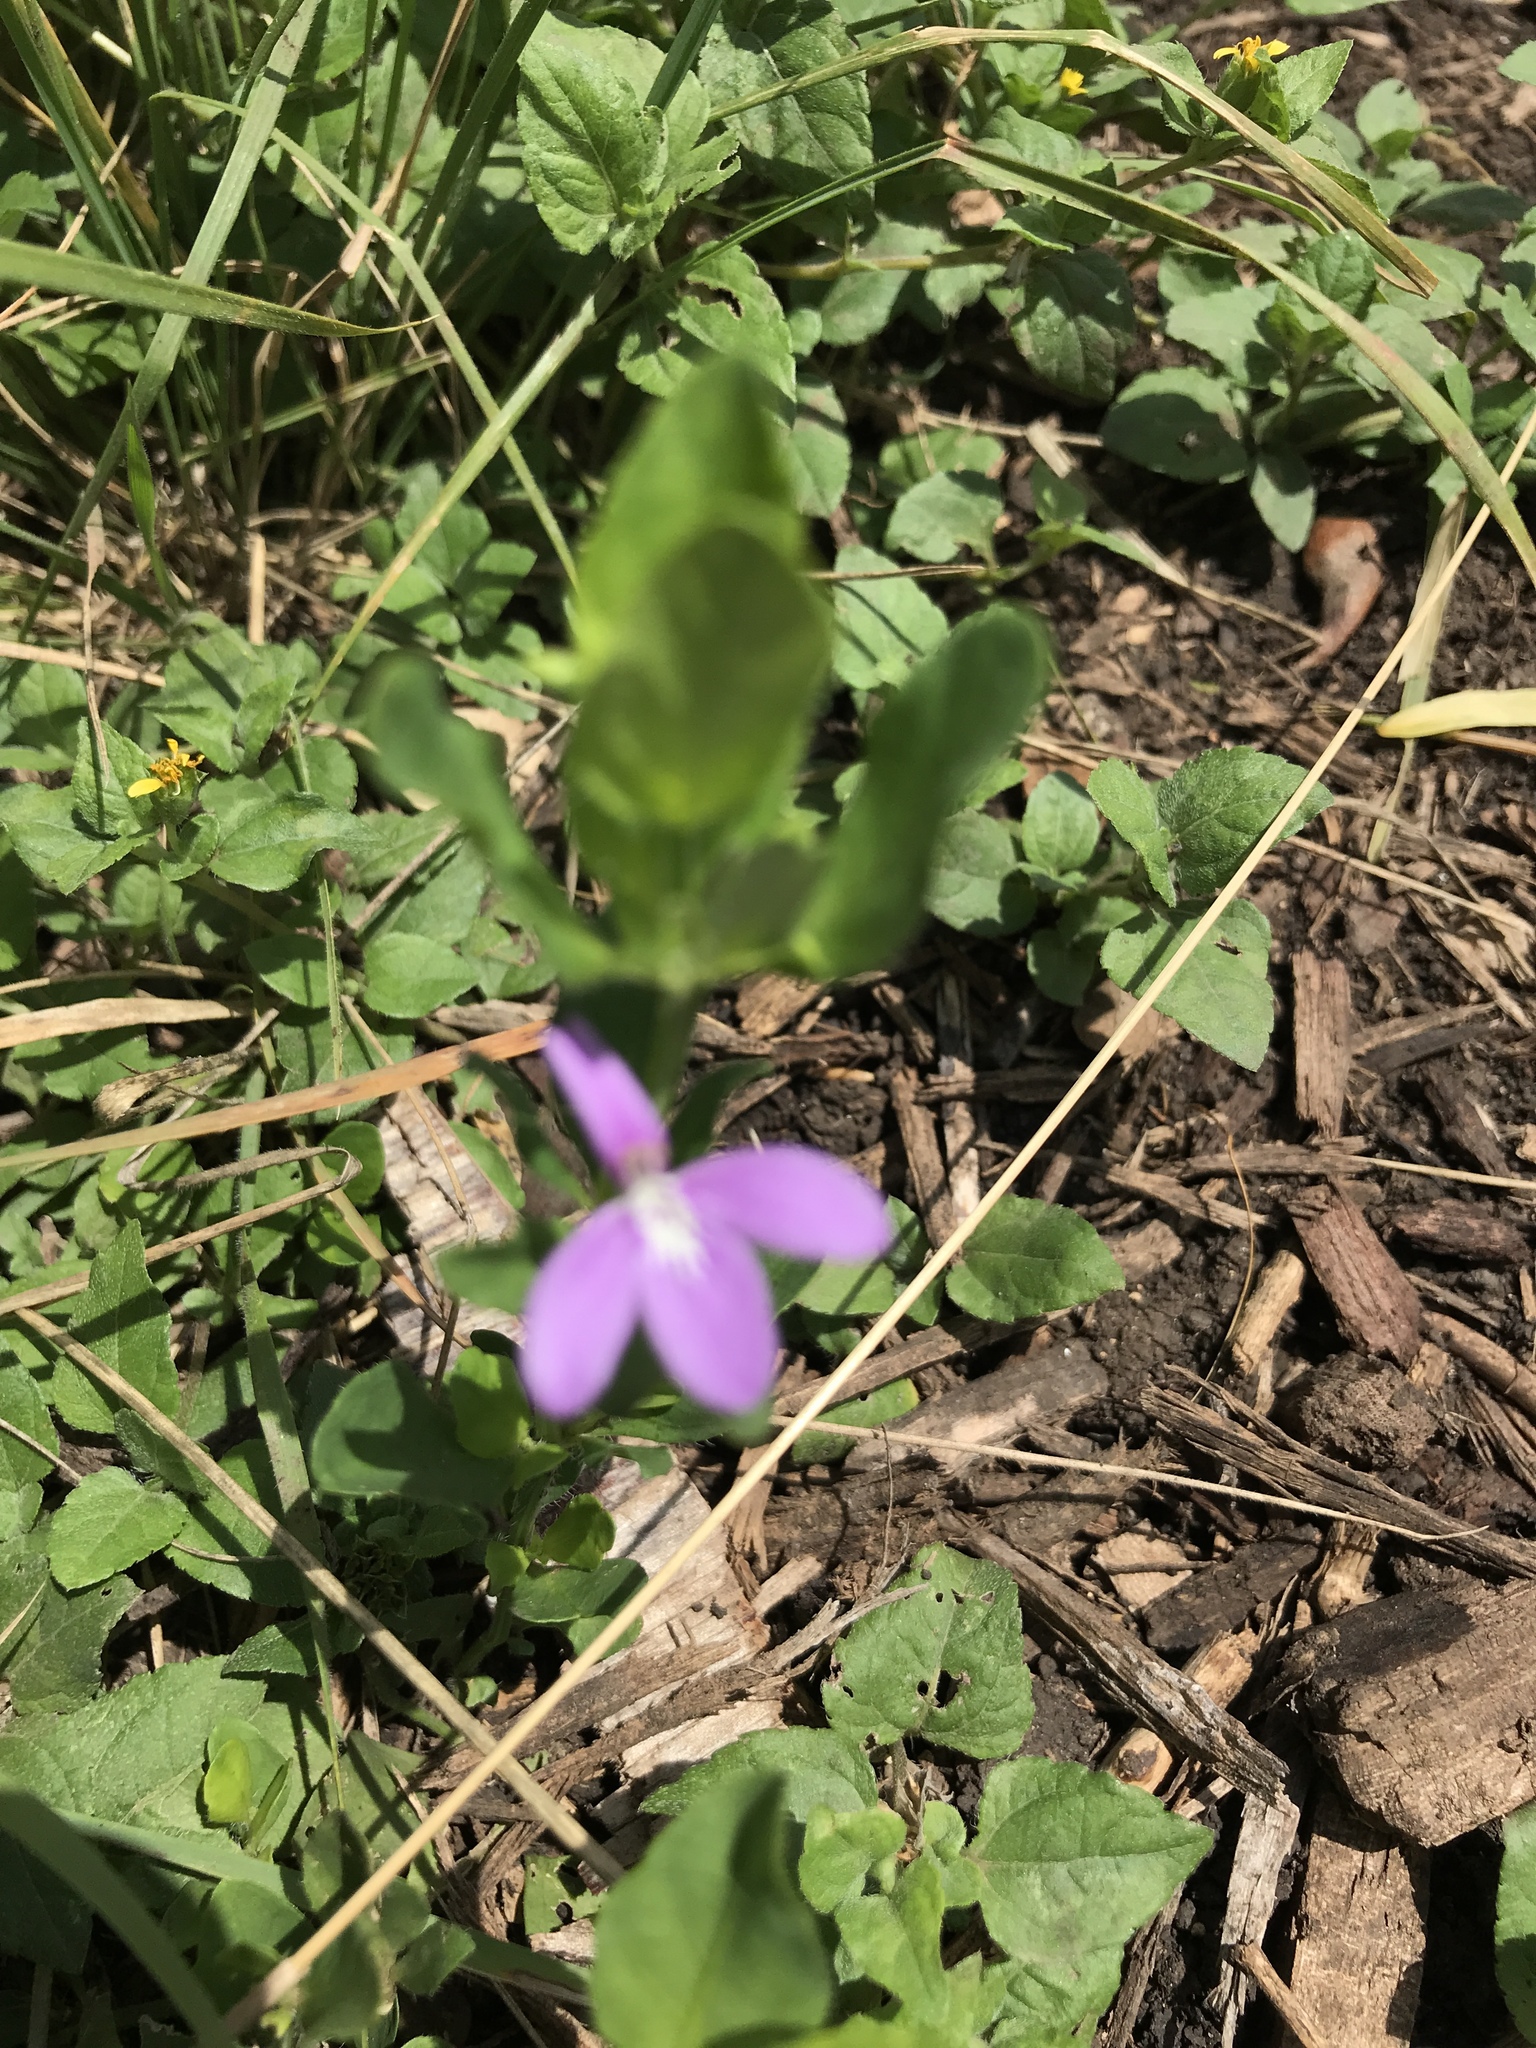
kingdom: Plantae
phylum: Tracheophyta
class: Magnoliopsida
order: Lamiales
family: Acanthaceae
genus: Justicia
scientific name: Justicia pilosella
